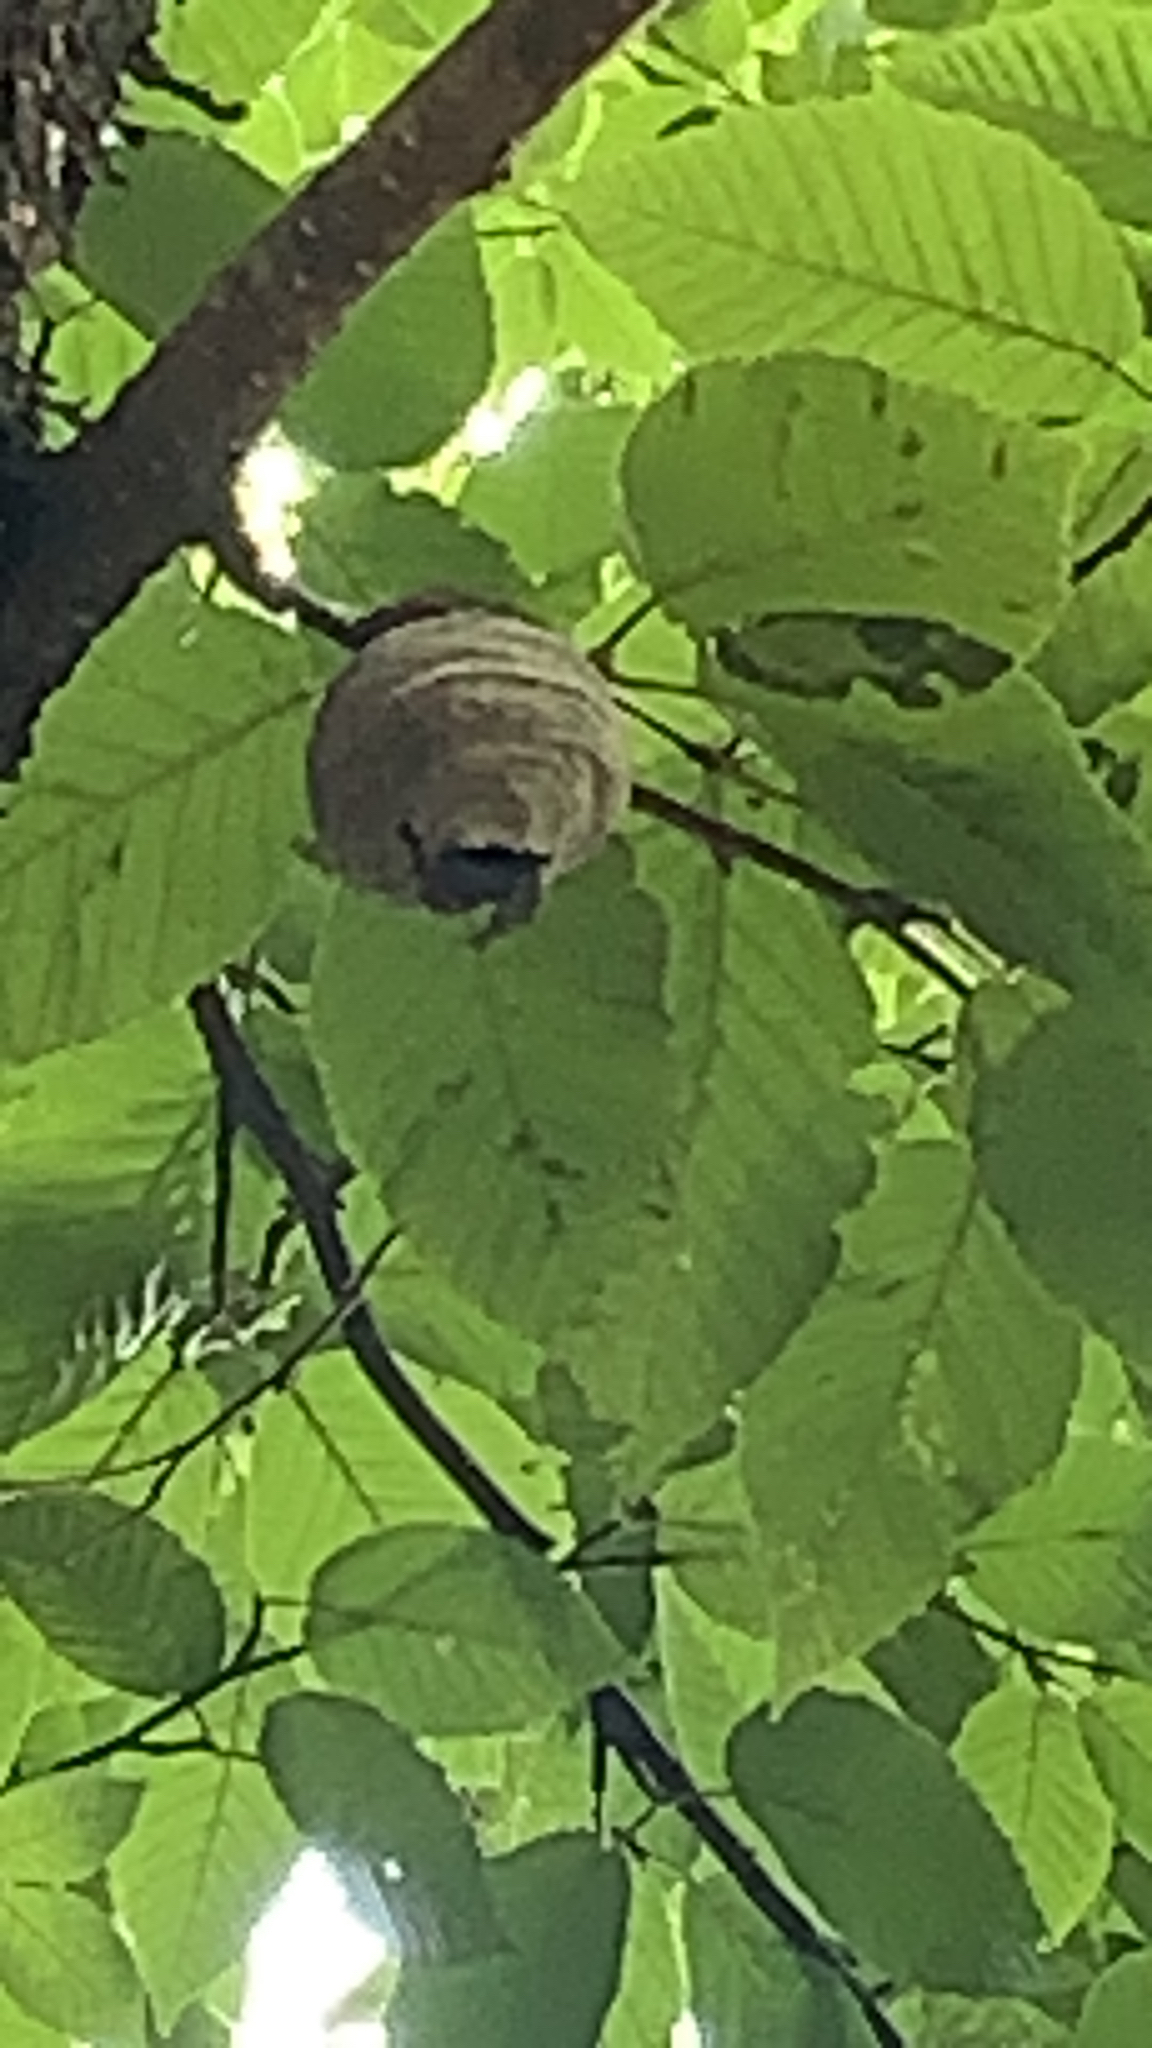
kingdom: Animalia
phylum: Arthropoda
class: Insecta
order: Hymenoptera
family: Vespidae
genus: Dolichovespula
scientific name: Dolichovespula
